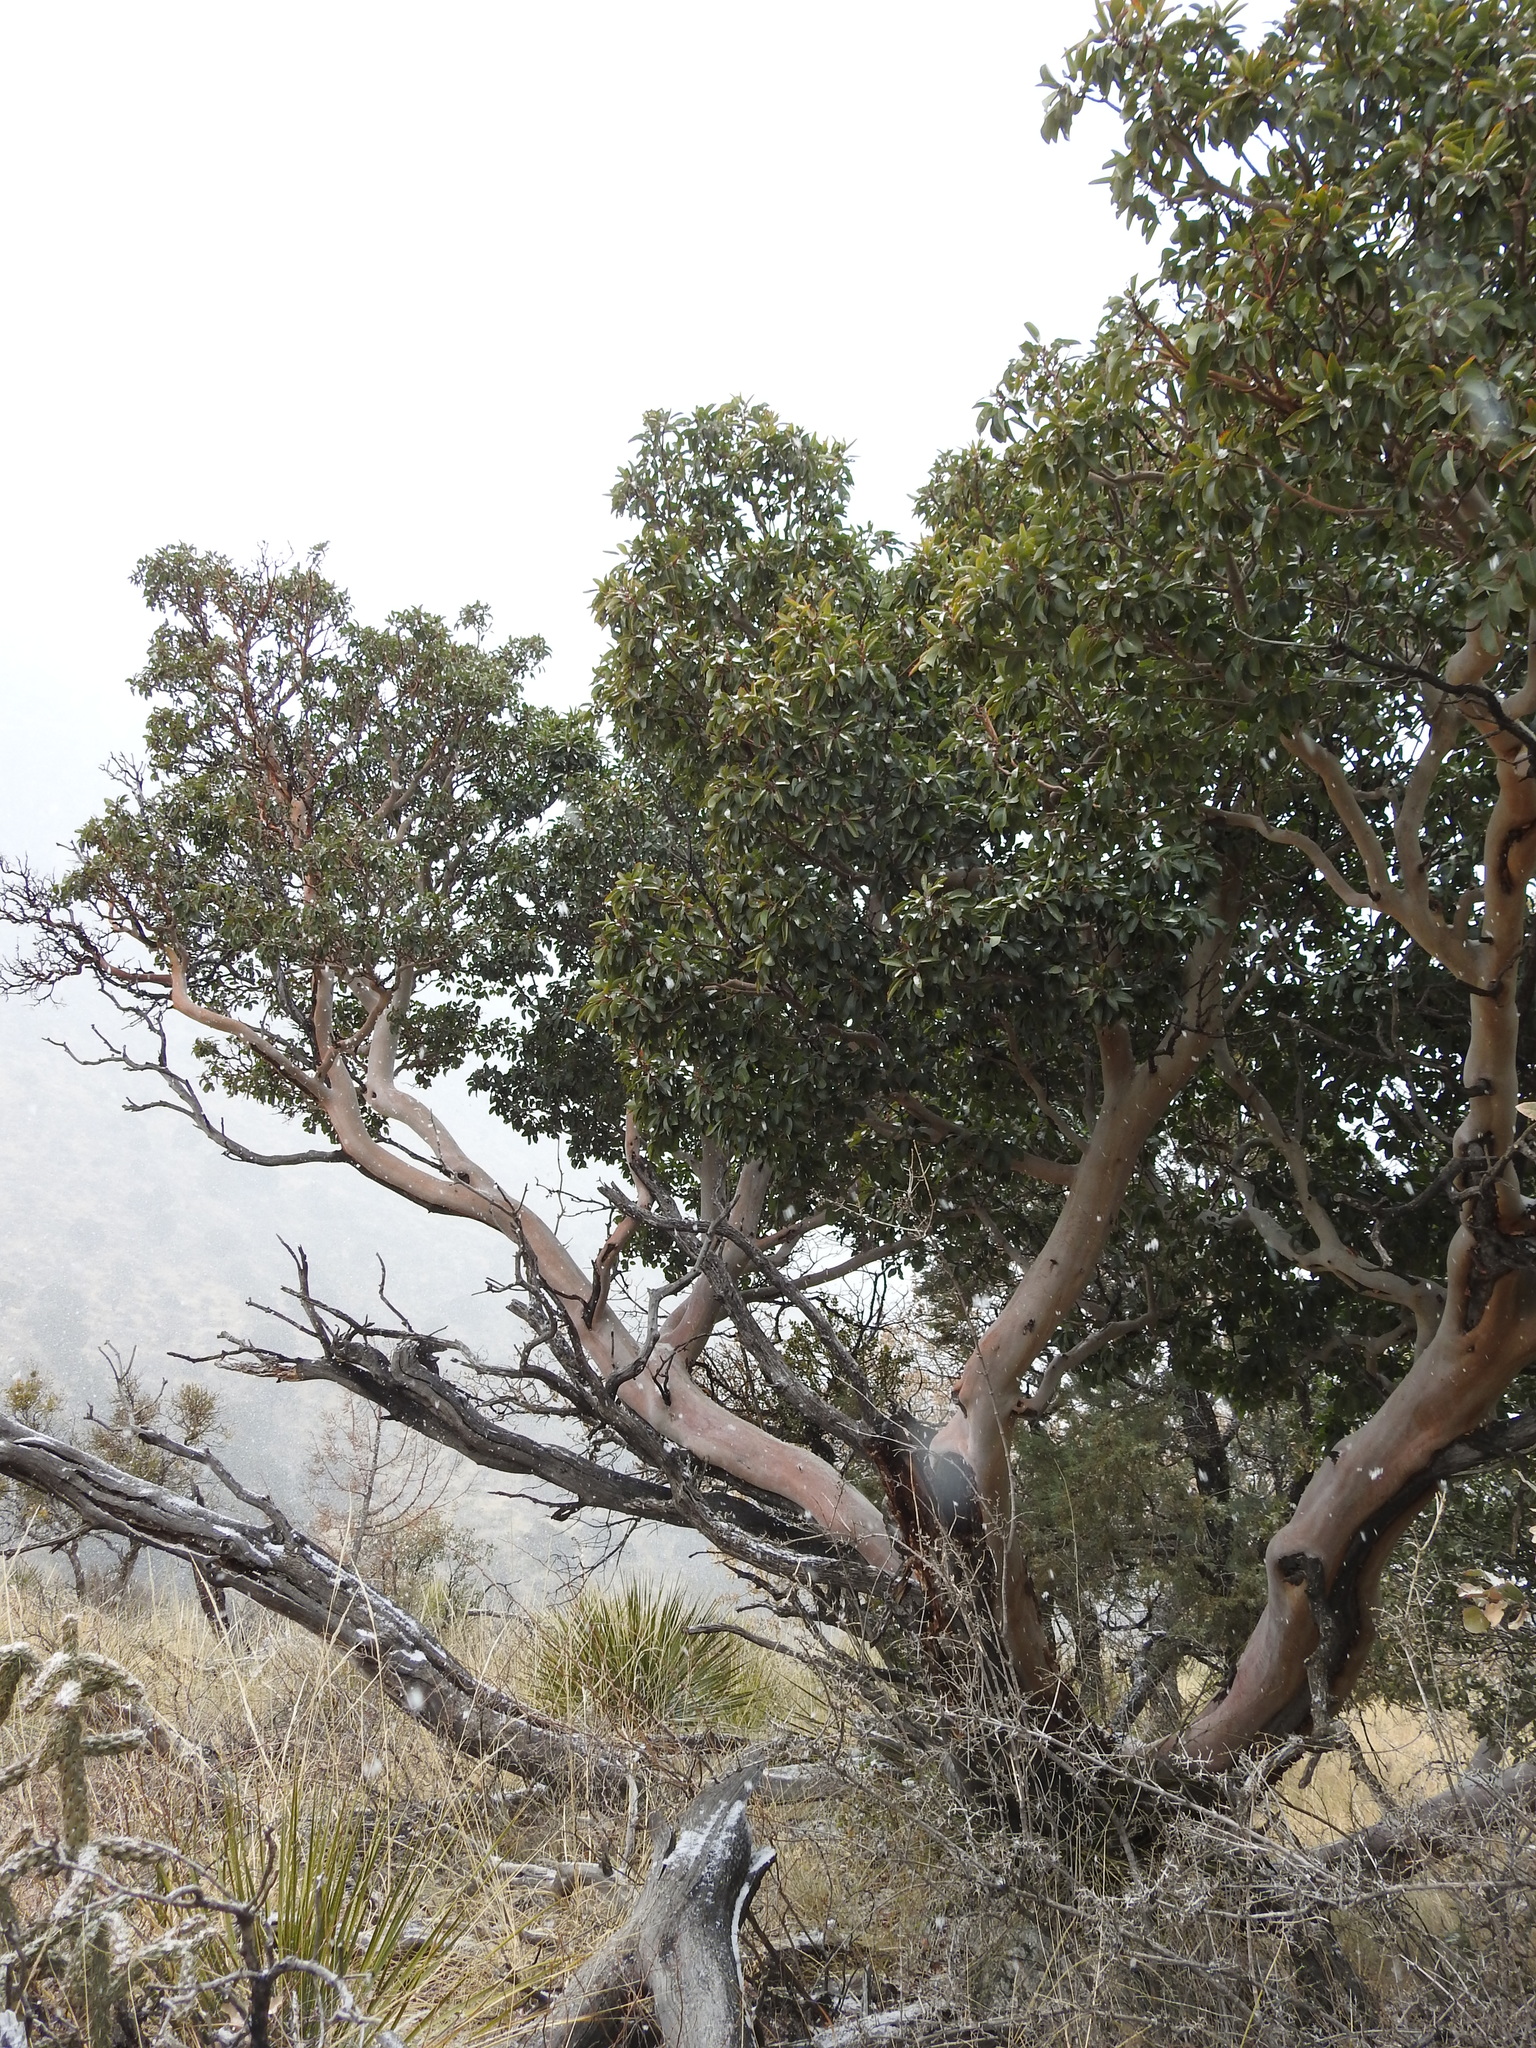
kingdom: Plantae
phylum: Tracheophyta
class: Magnoliopsida
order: Ericales
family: Ericaceae
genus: Arbutus
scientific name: Arbutus xalapensis
